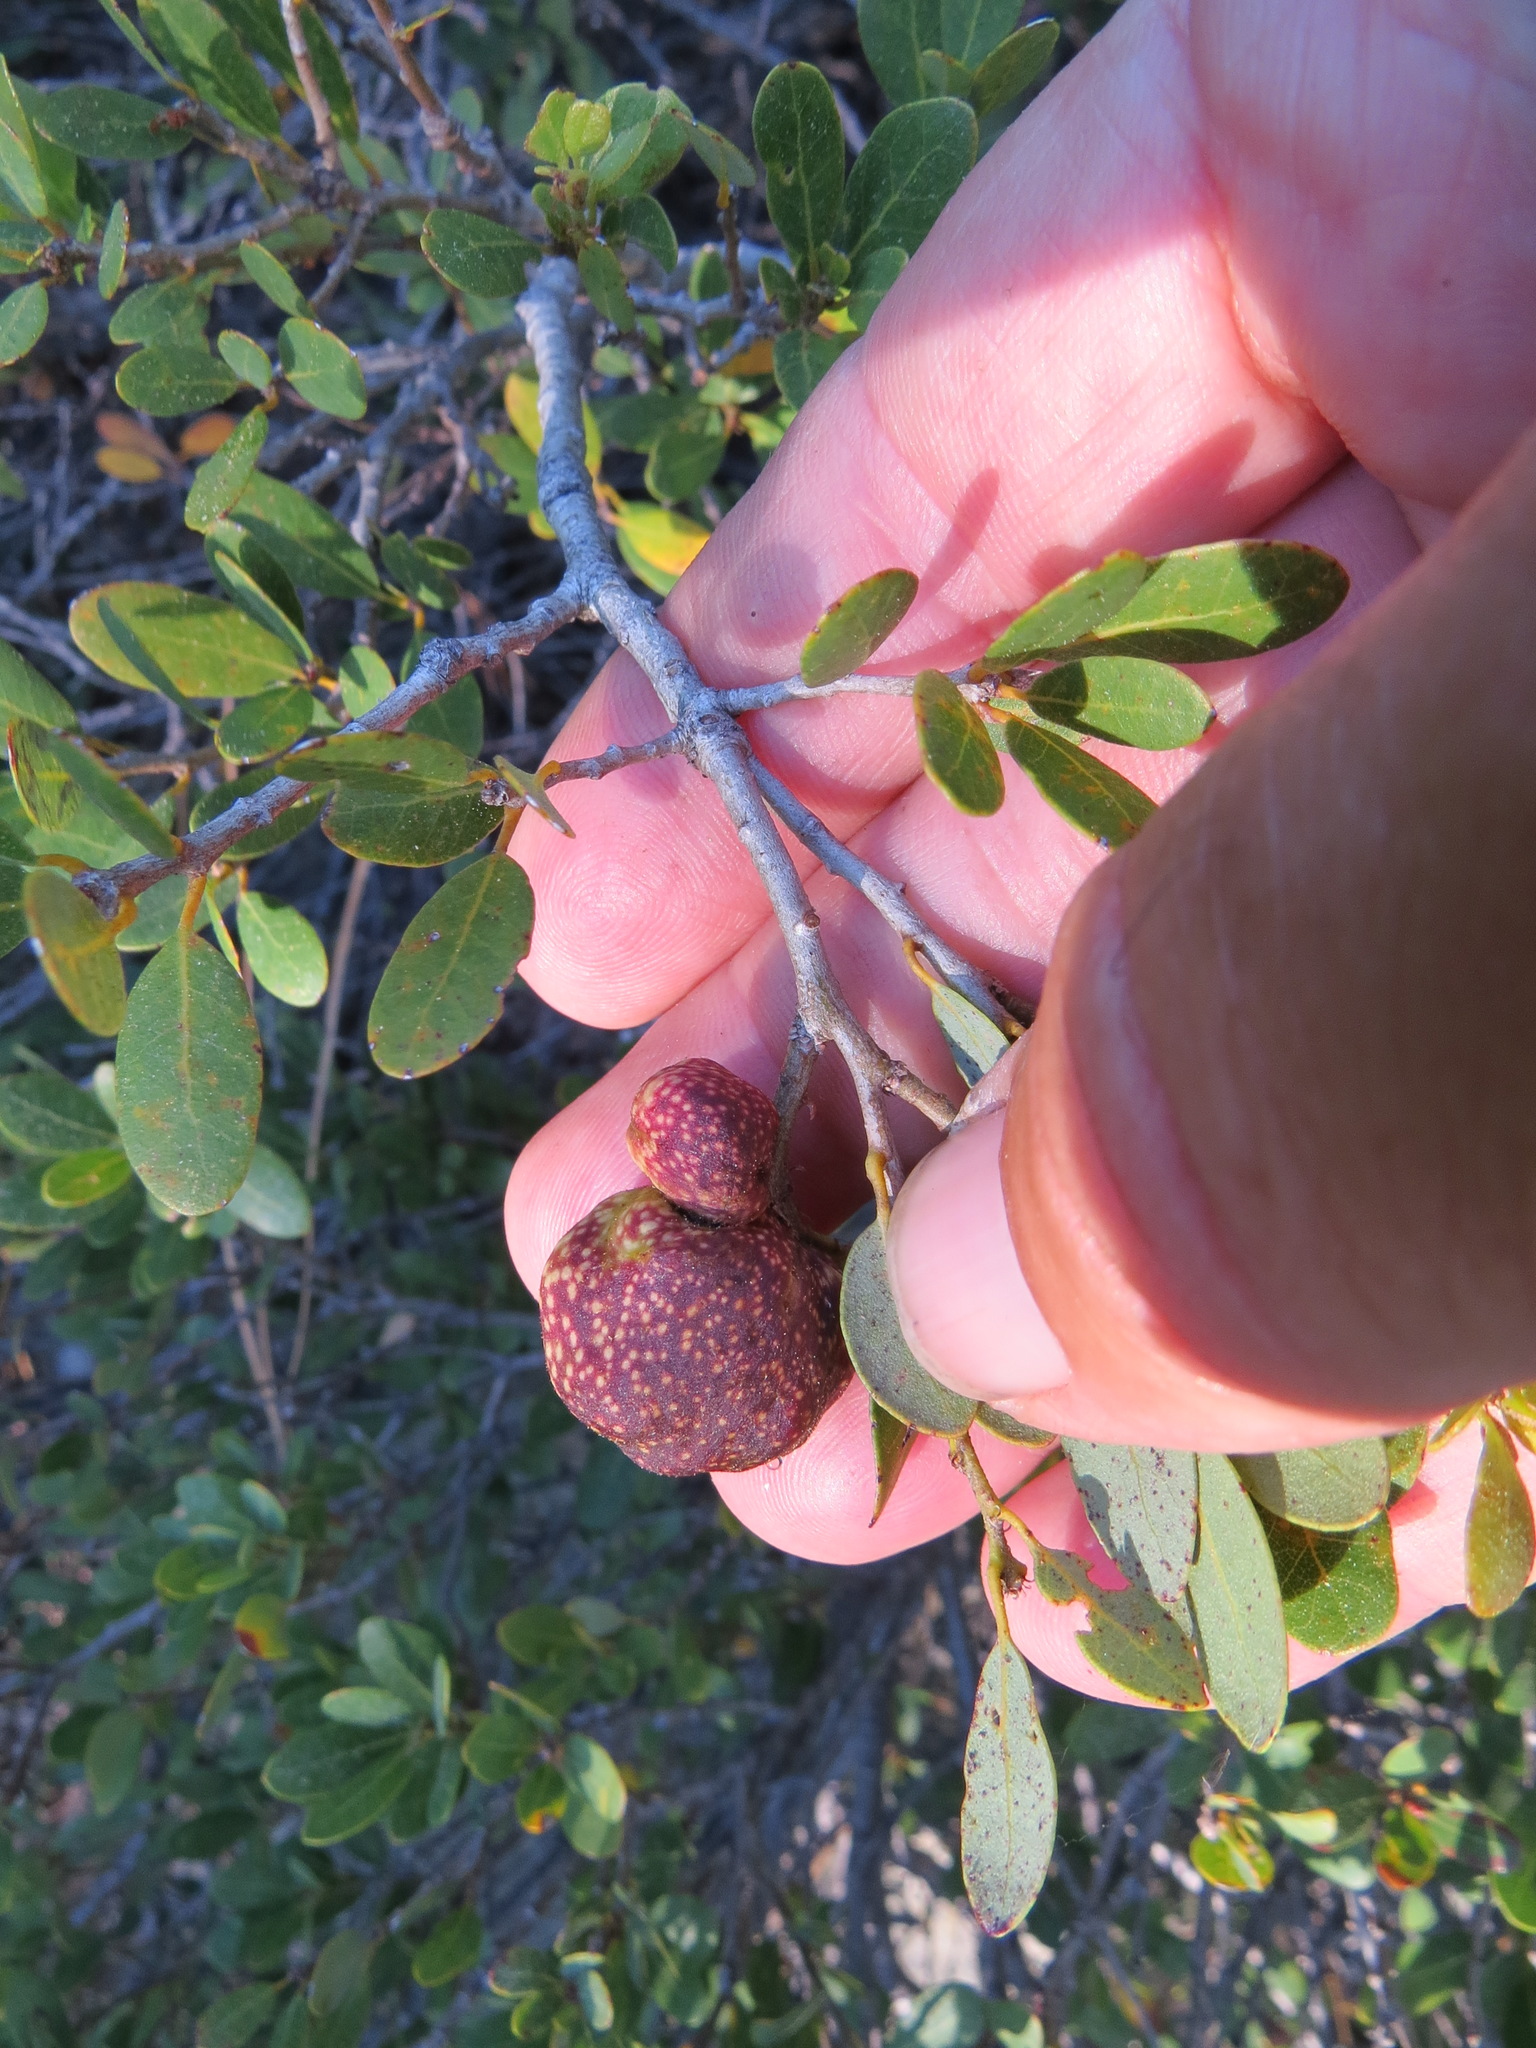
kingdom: Animalia
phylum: Arthropoda
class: Insecta
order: Hymenoptera
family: Cynipidae
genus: Disholandricus
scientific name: Disholandricus
